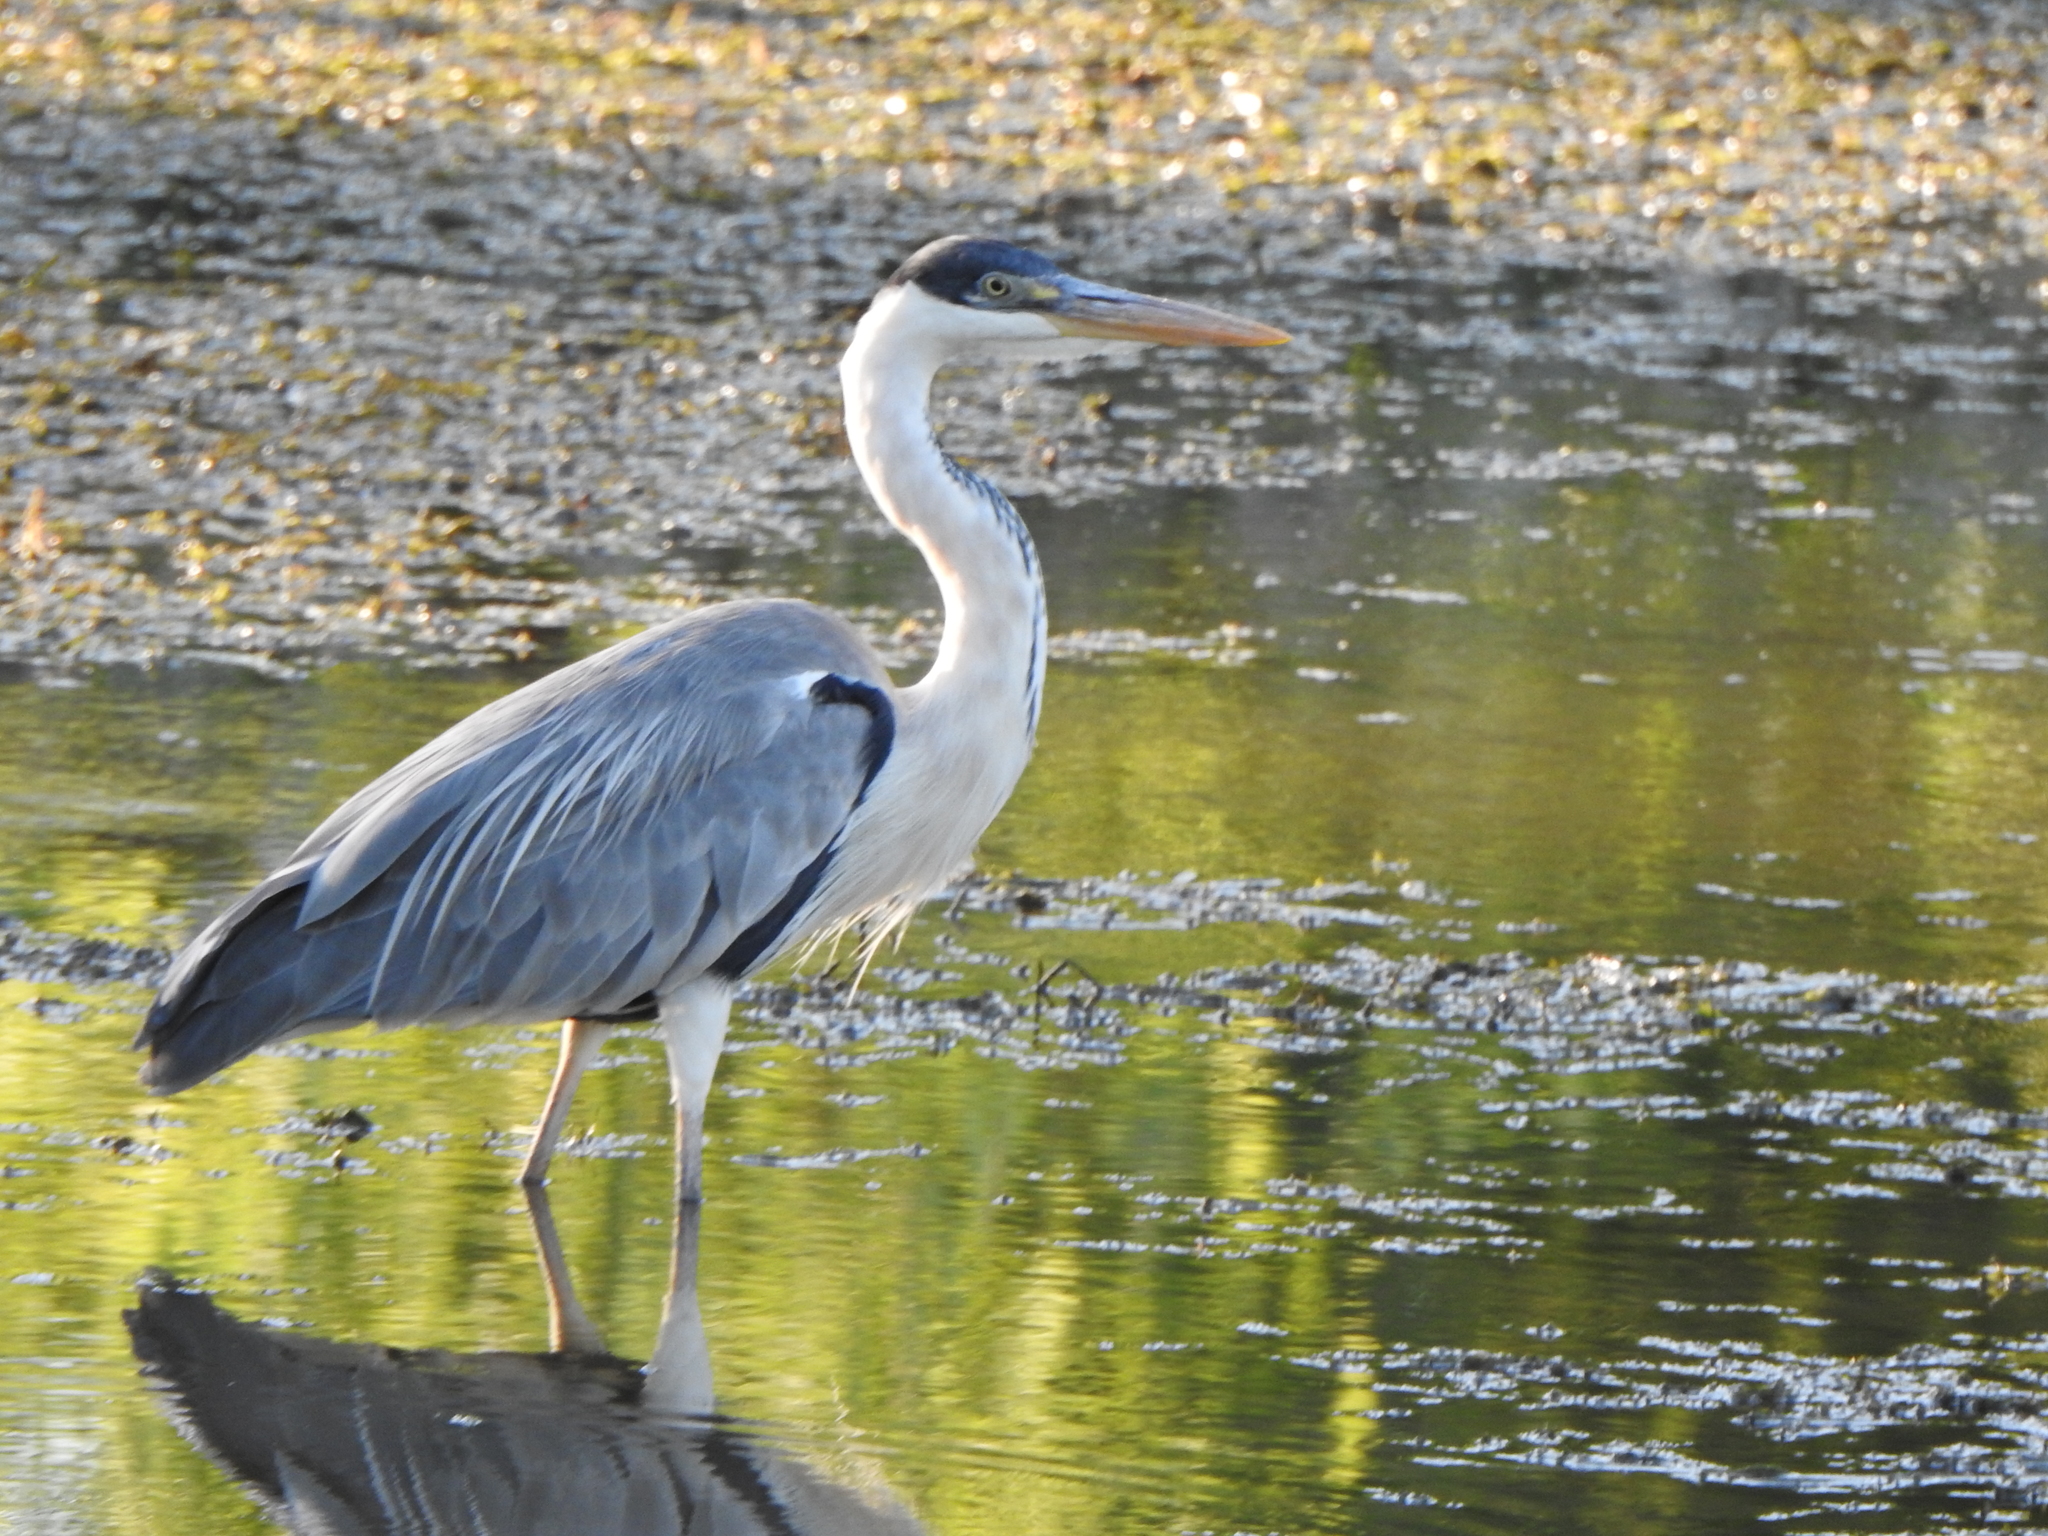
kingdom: Animalia
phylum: Chordata
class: Aves
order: Pelecaniformes
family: Ardeidae
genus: Ardea
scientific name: Ardea cocoi
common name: Cocoi heron
